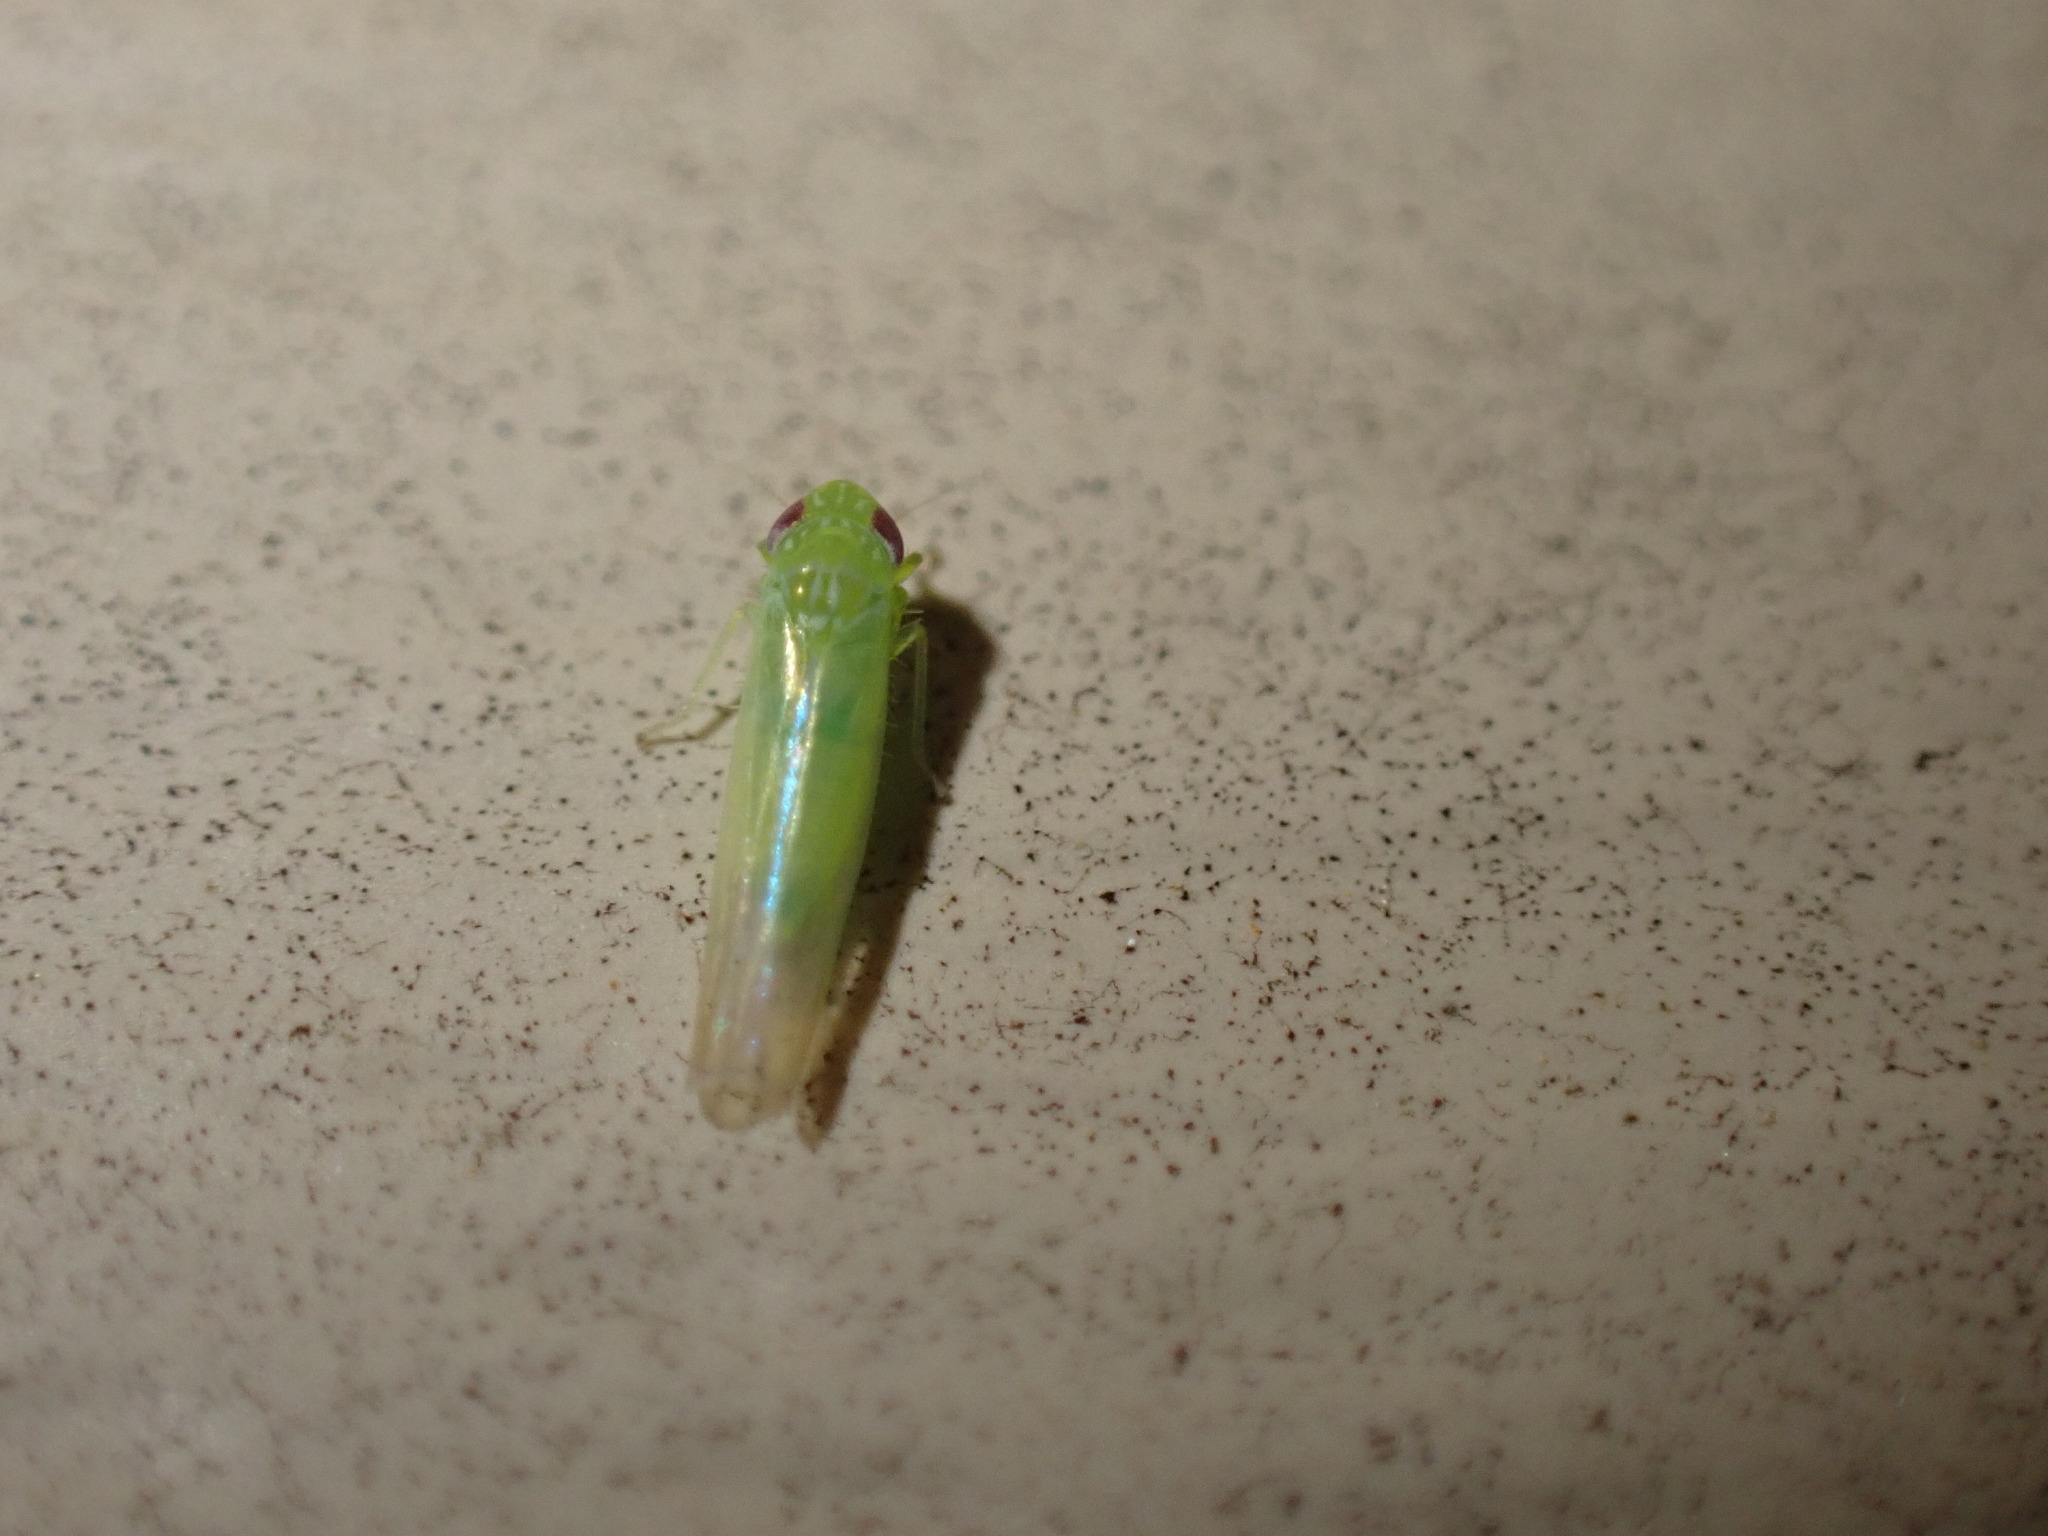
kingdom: Animalia
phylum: Arthropoda
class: Insecta
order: Hemiptera
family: Cicadellidae
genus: Empoasca
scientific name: Empoasca fabae
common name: Potato leafhopper
